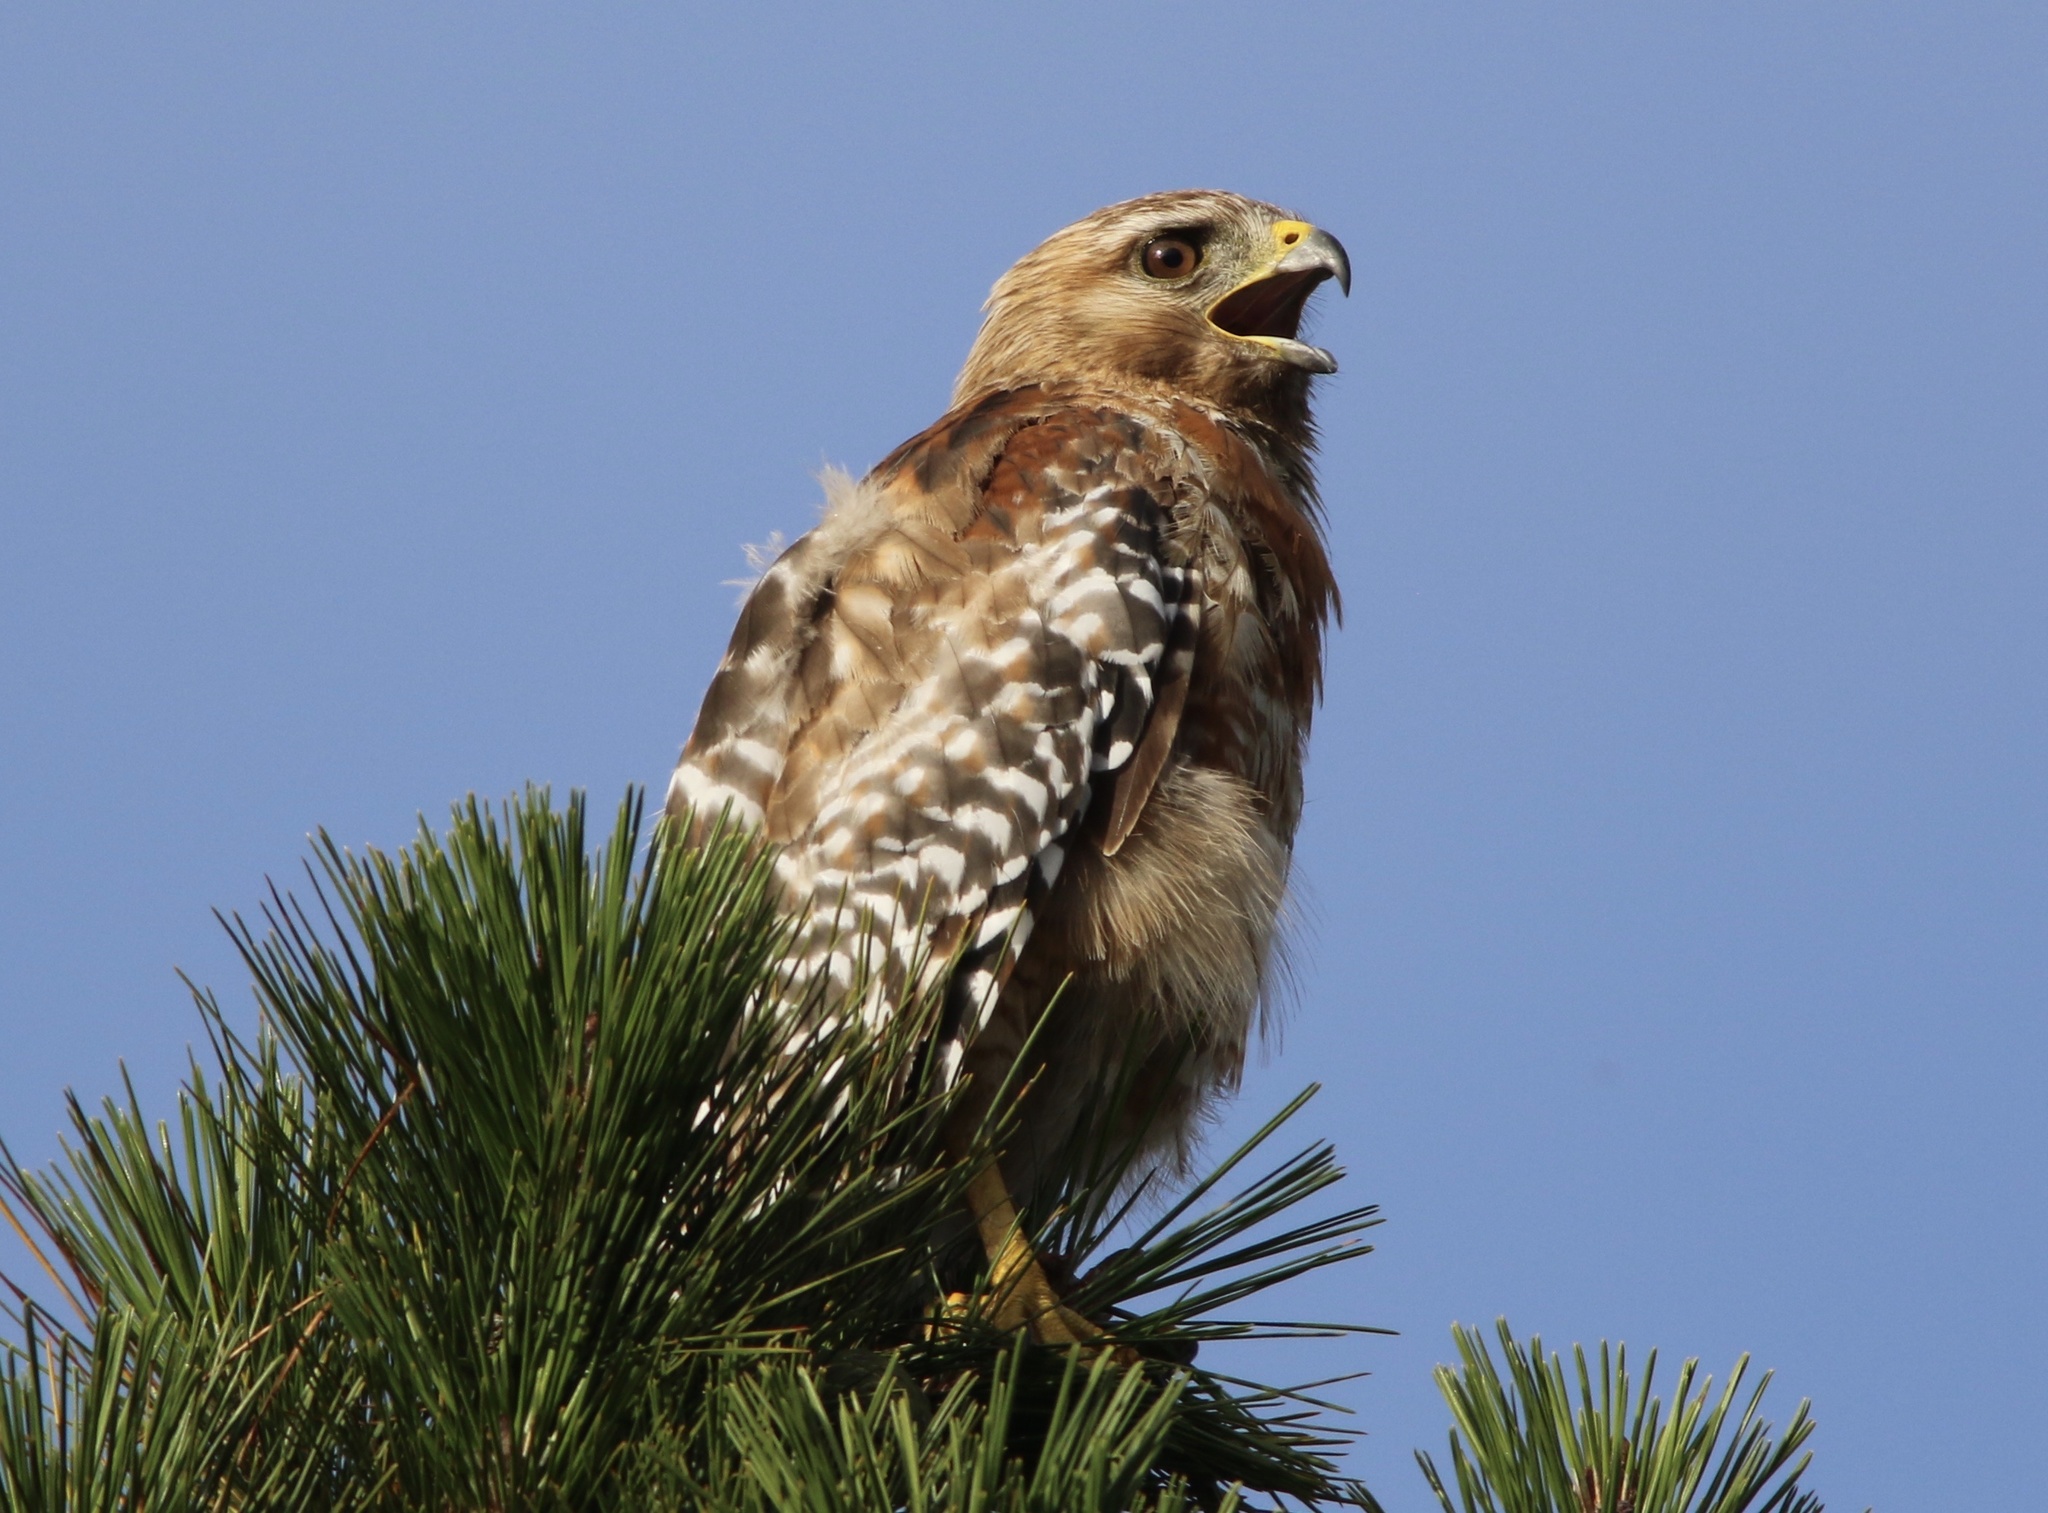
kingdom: Animalia
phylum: Chordata
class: Aves
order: Accipitriformes
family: Accipitridae
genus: Buteo
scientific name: Buteo lineatus
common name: Red-shouldered hawk
